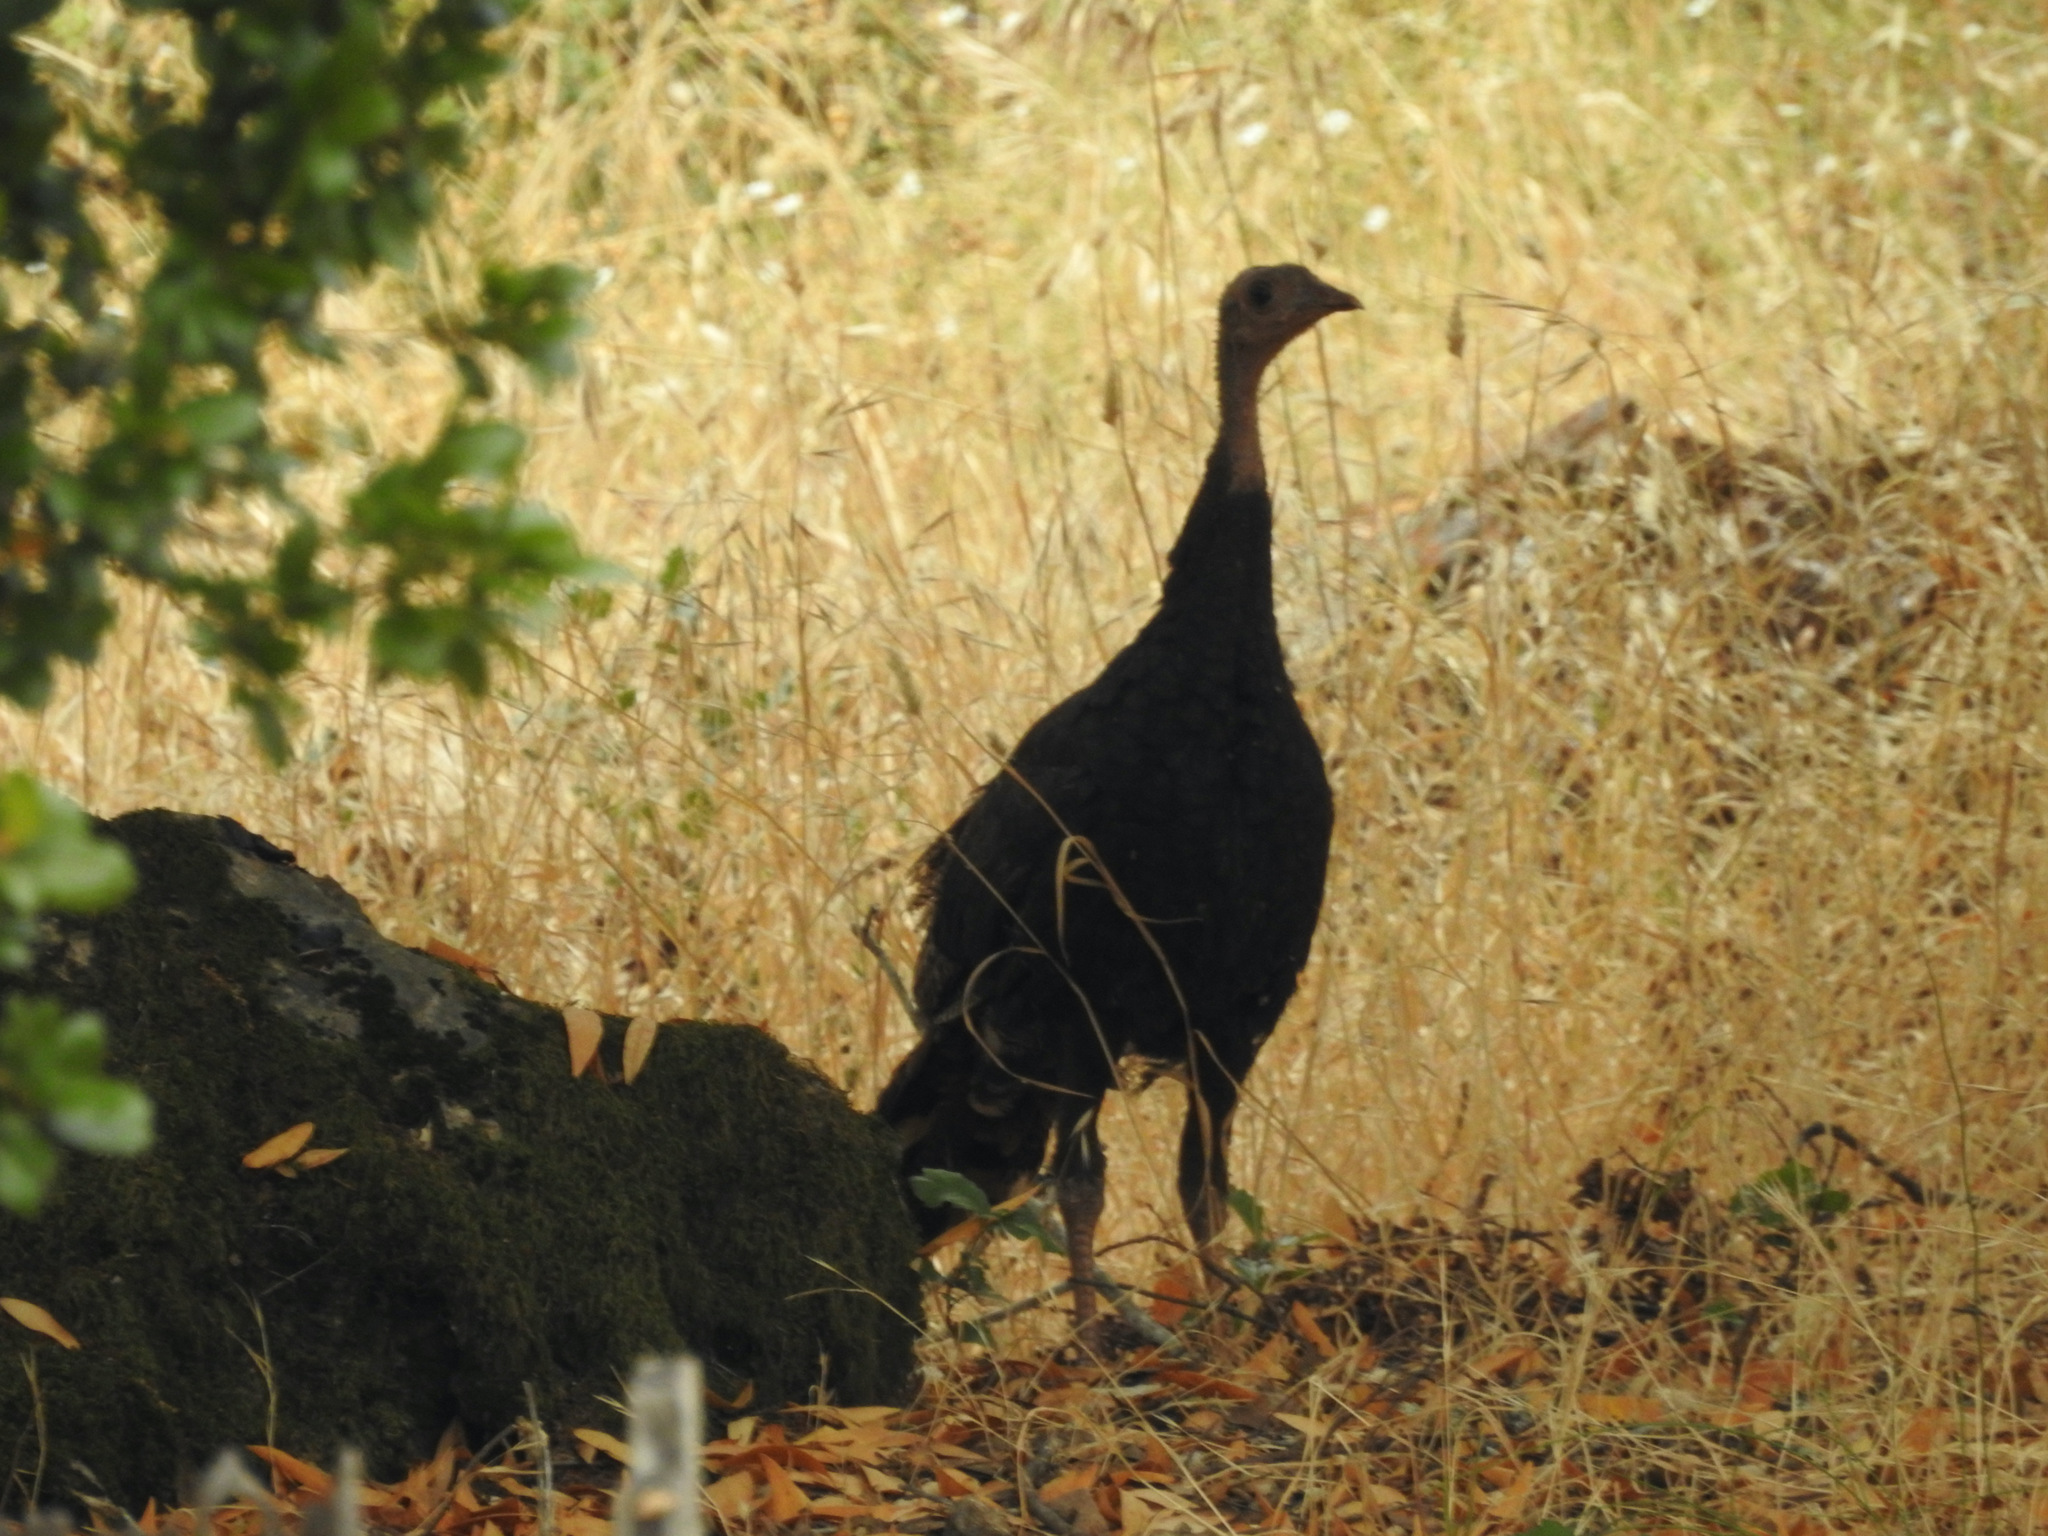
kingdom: Animalia
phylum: Chordata
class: Aves
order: Galliformes
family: Phasianidae
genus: Meleagris
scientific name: Meleagris gallopavo
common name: Wild turkey
